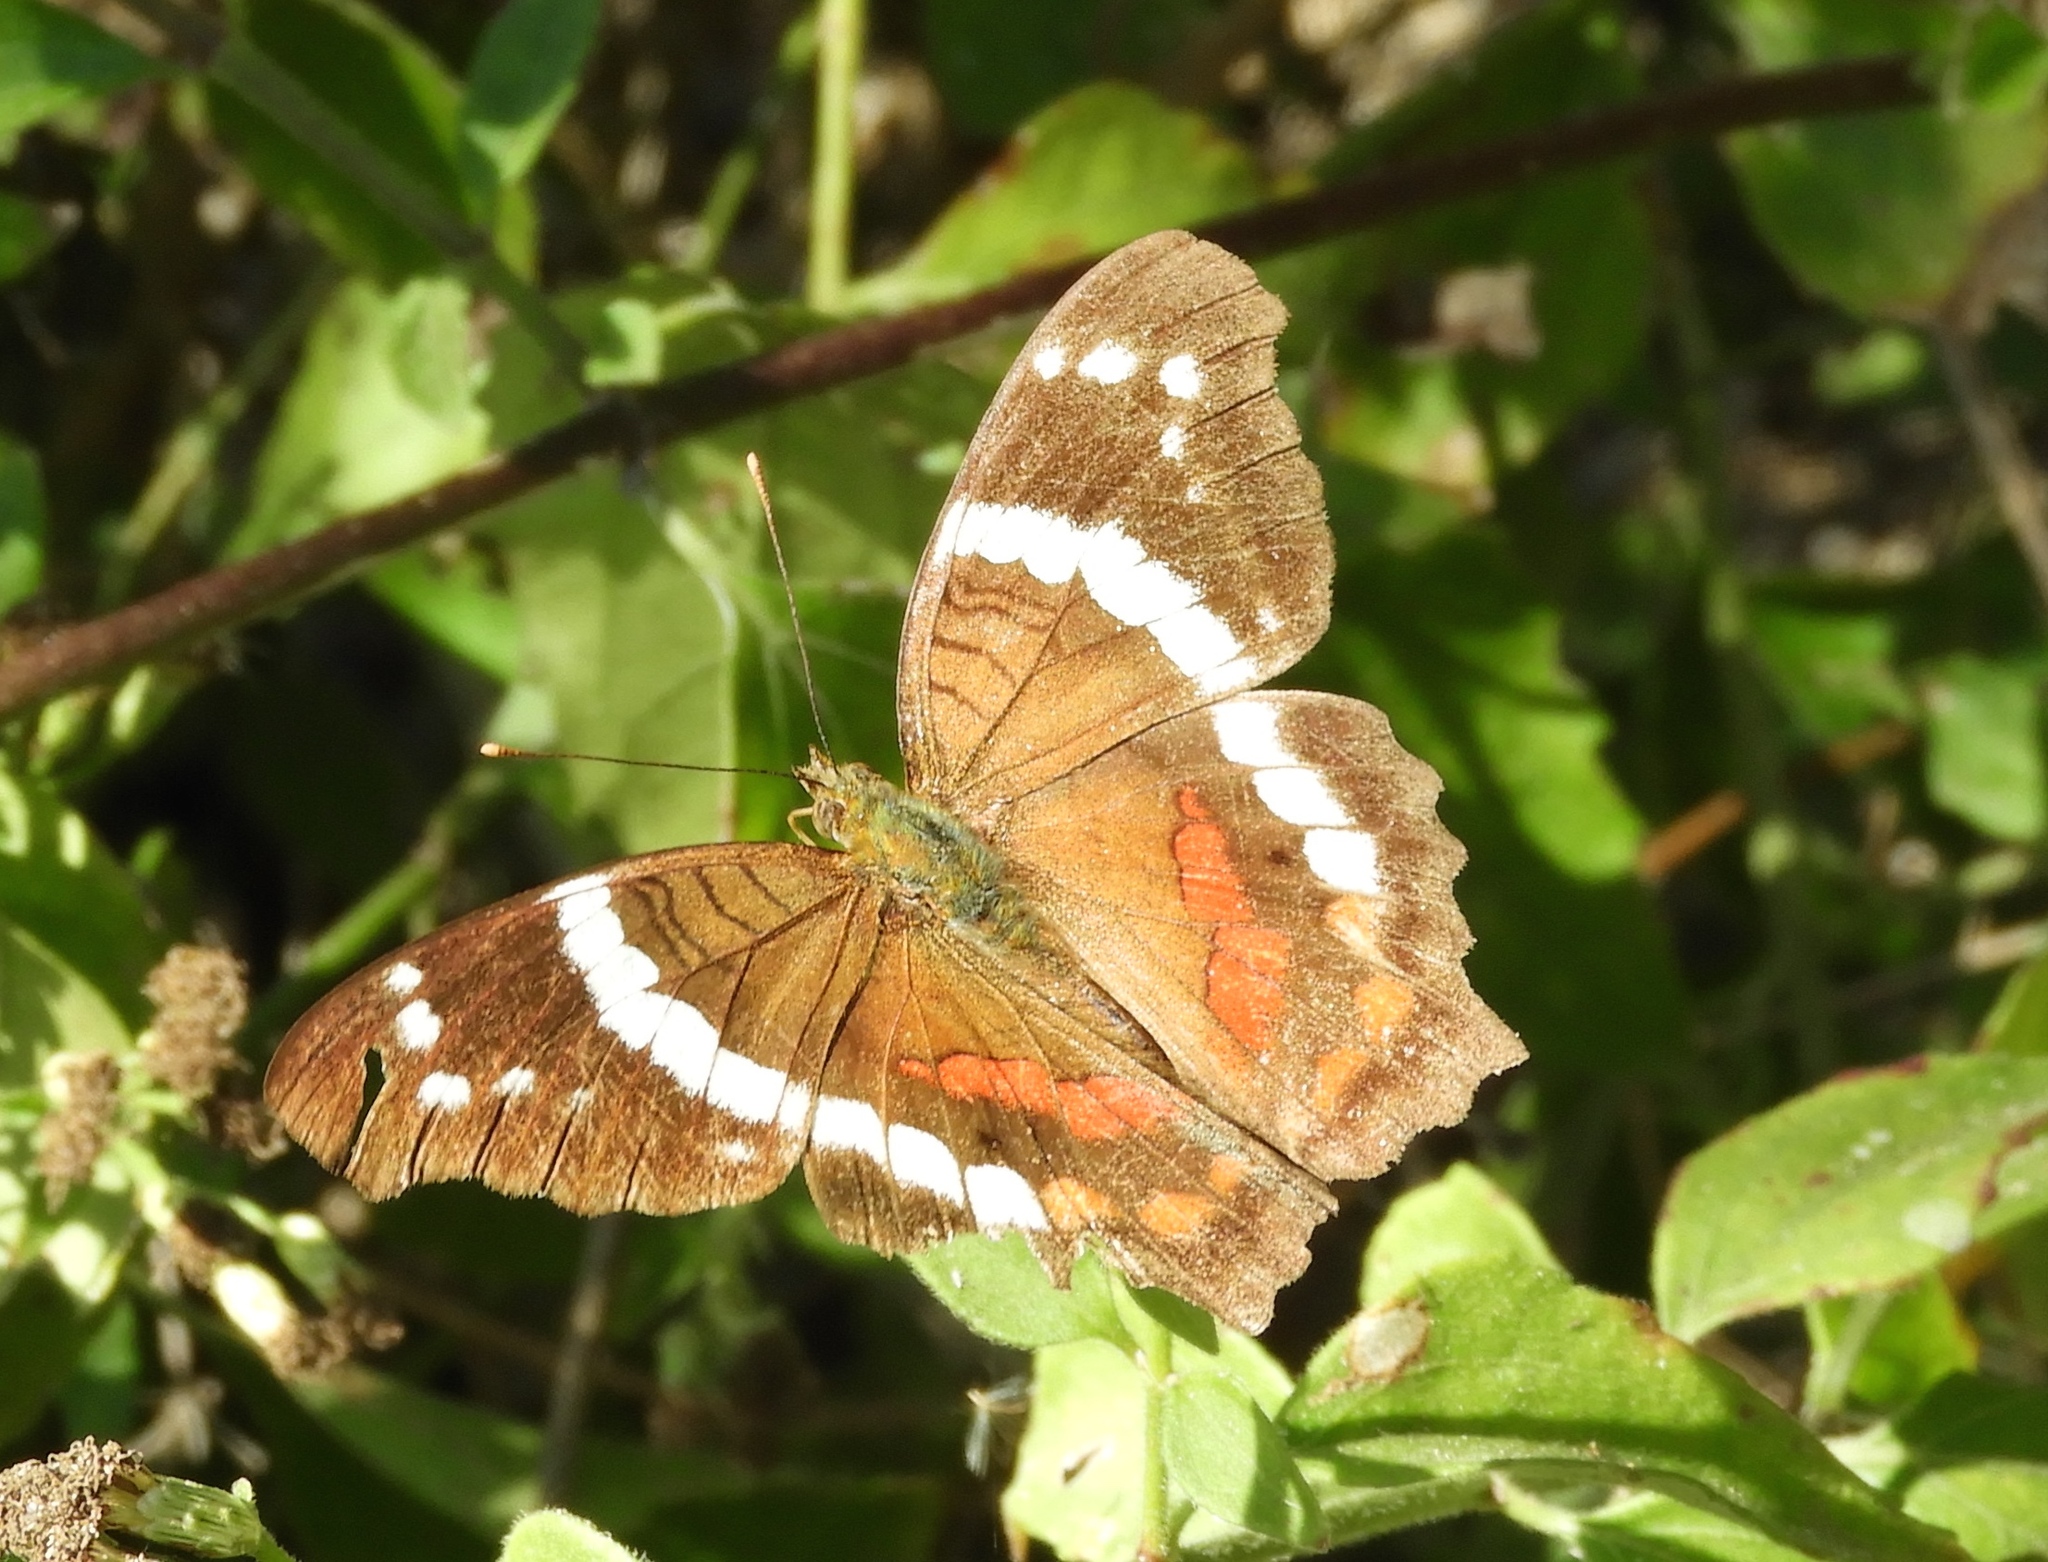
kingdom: Animalia
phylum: Arthropoda
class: Insecta
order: Lepidoptera
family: Nymphalidae
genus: Anartia
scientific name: Anartia fatima
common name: Banded peacock
